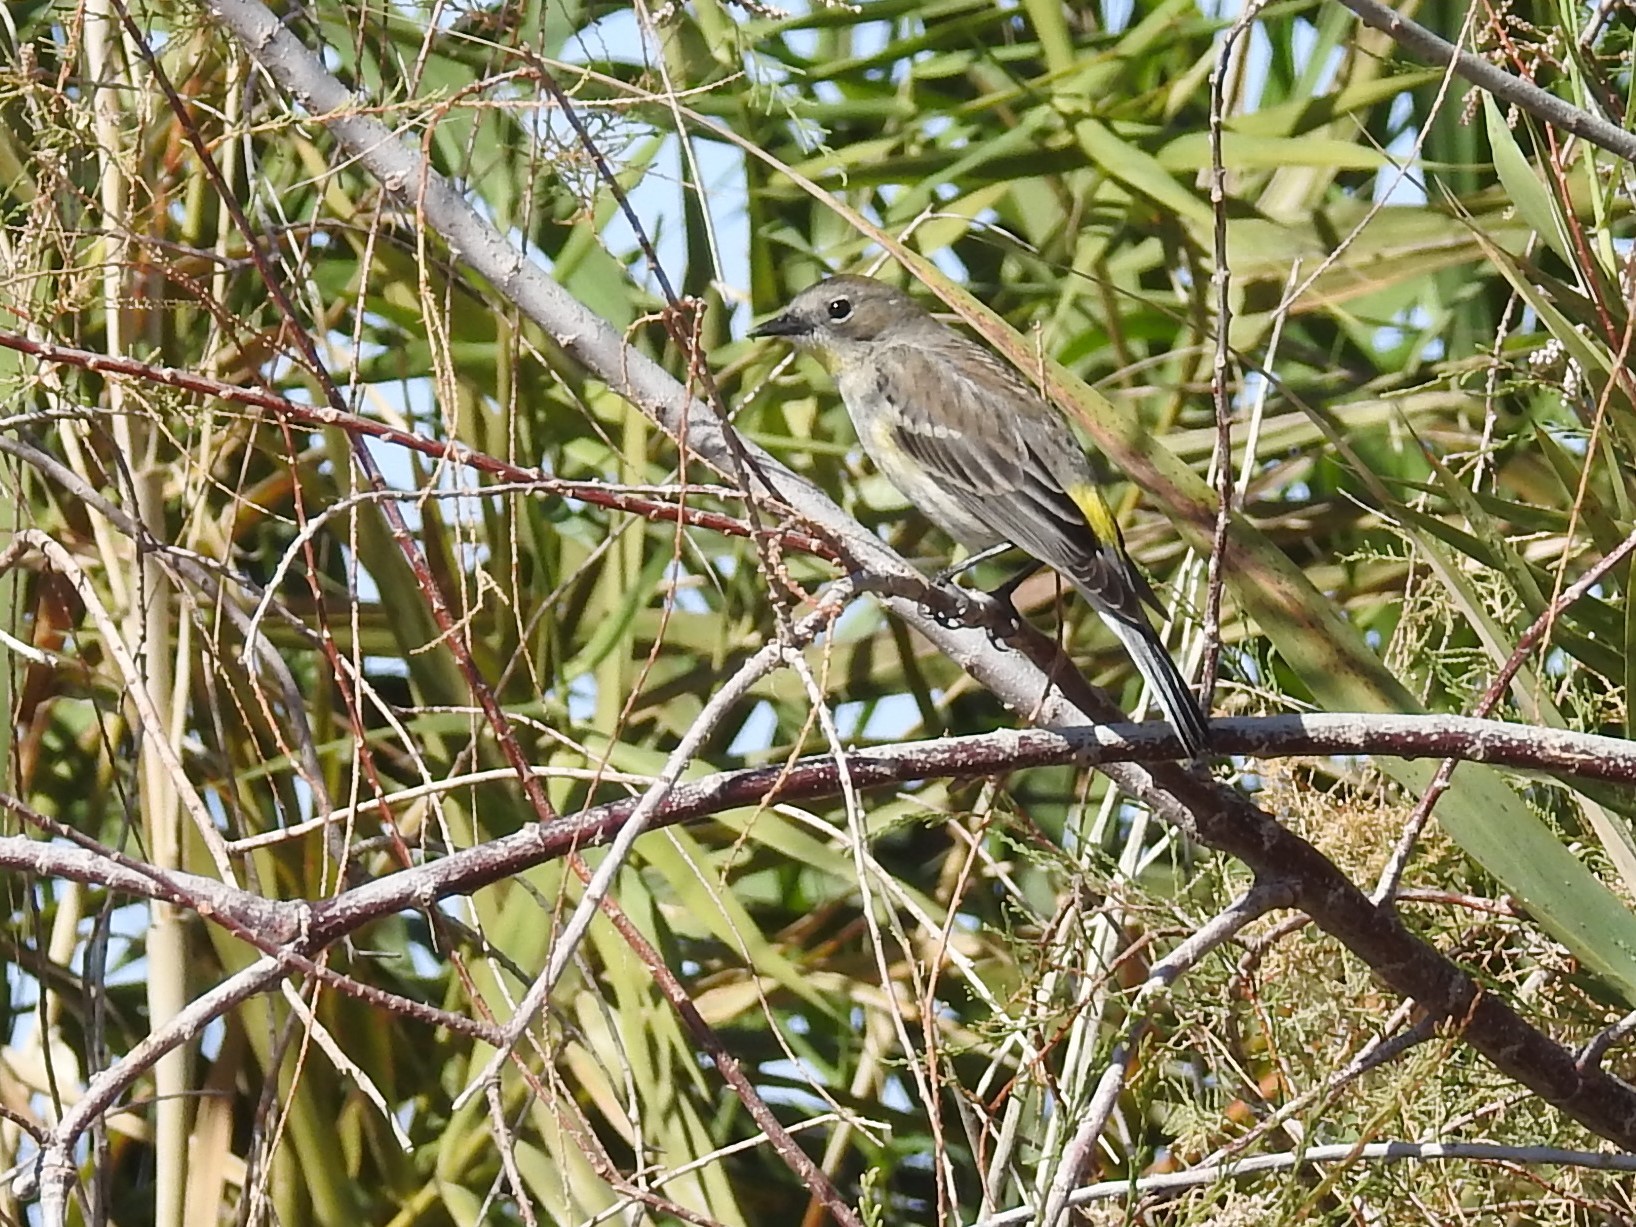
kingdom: Animalia
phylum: Chordata
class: Aves
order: Passeriformes
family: Parulidae
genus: Setophaga
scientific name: Setophaga coronata
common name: Myrtle warbler
